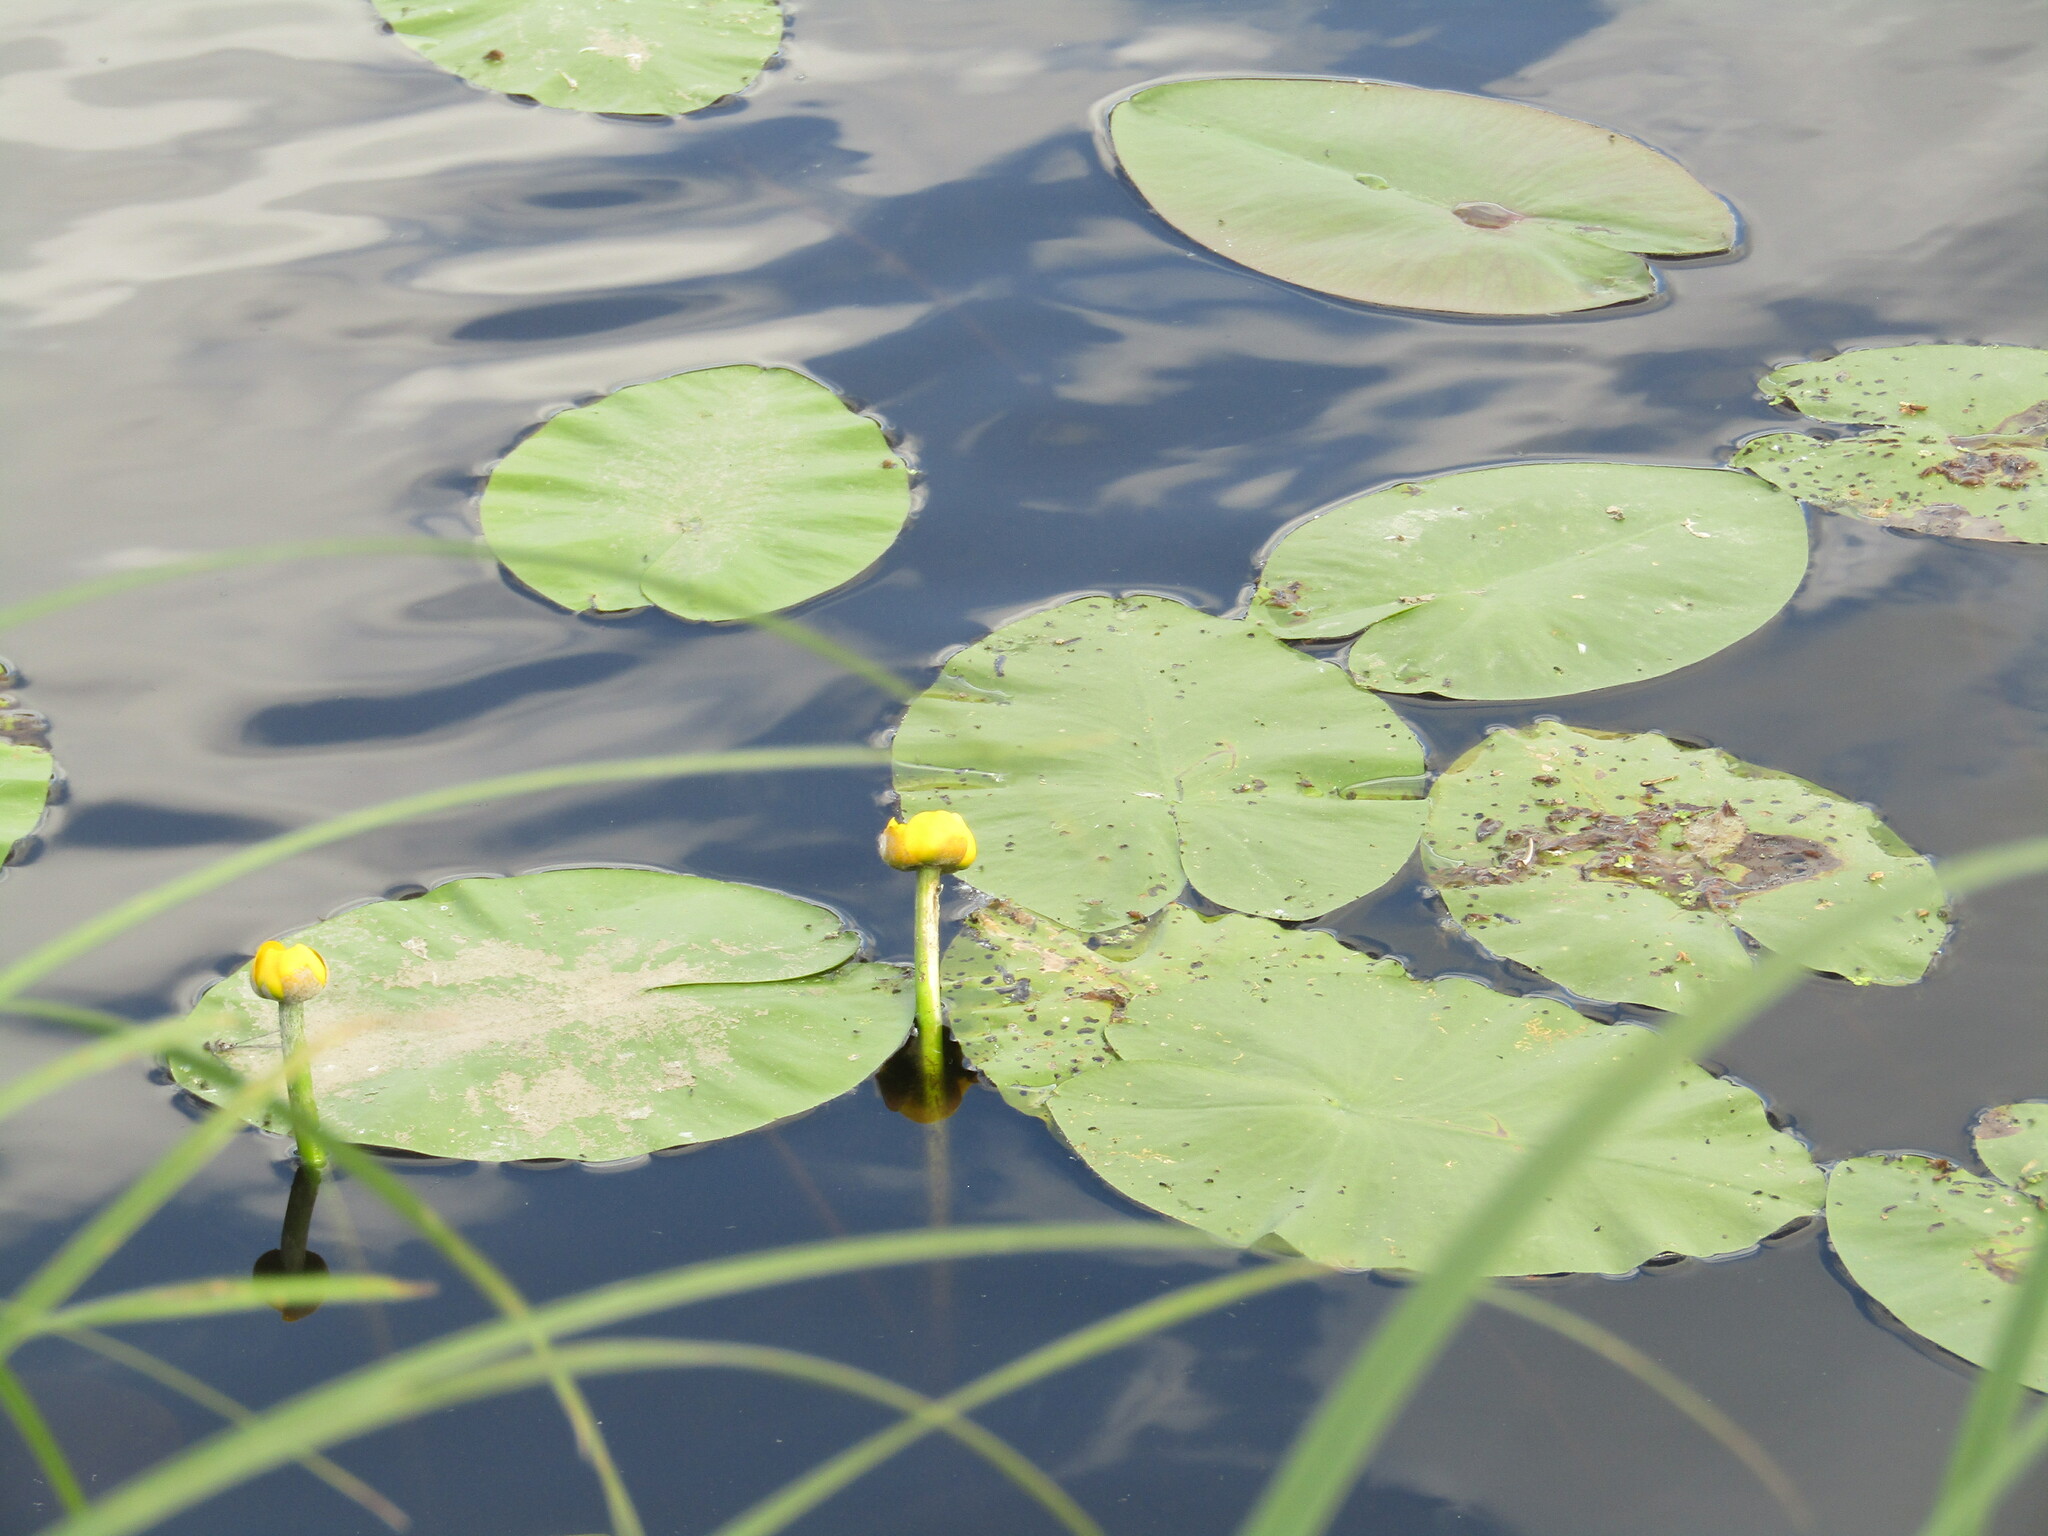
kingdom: Plantae
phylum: Tracheophyta
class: Magnoliopsida
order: Nymphaeales
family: Nymphaeaceae
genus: Nuphar
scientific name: Nuphar lutea
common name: Yellow water-lily
